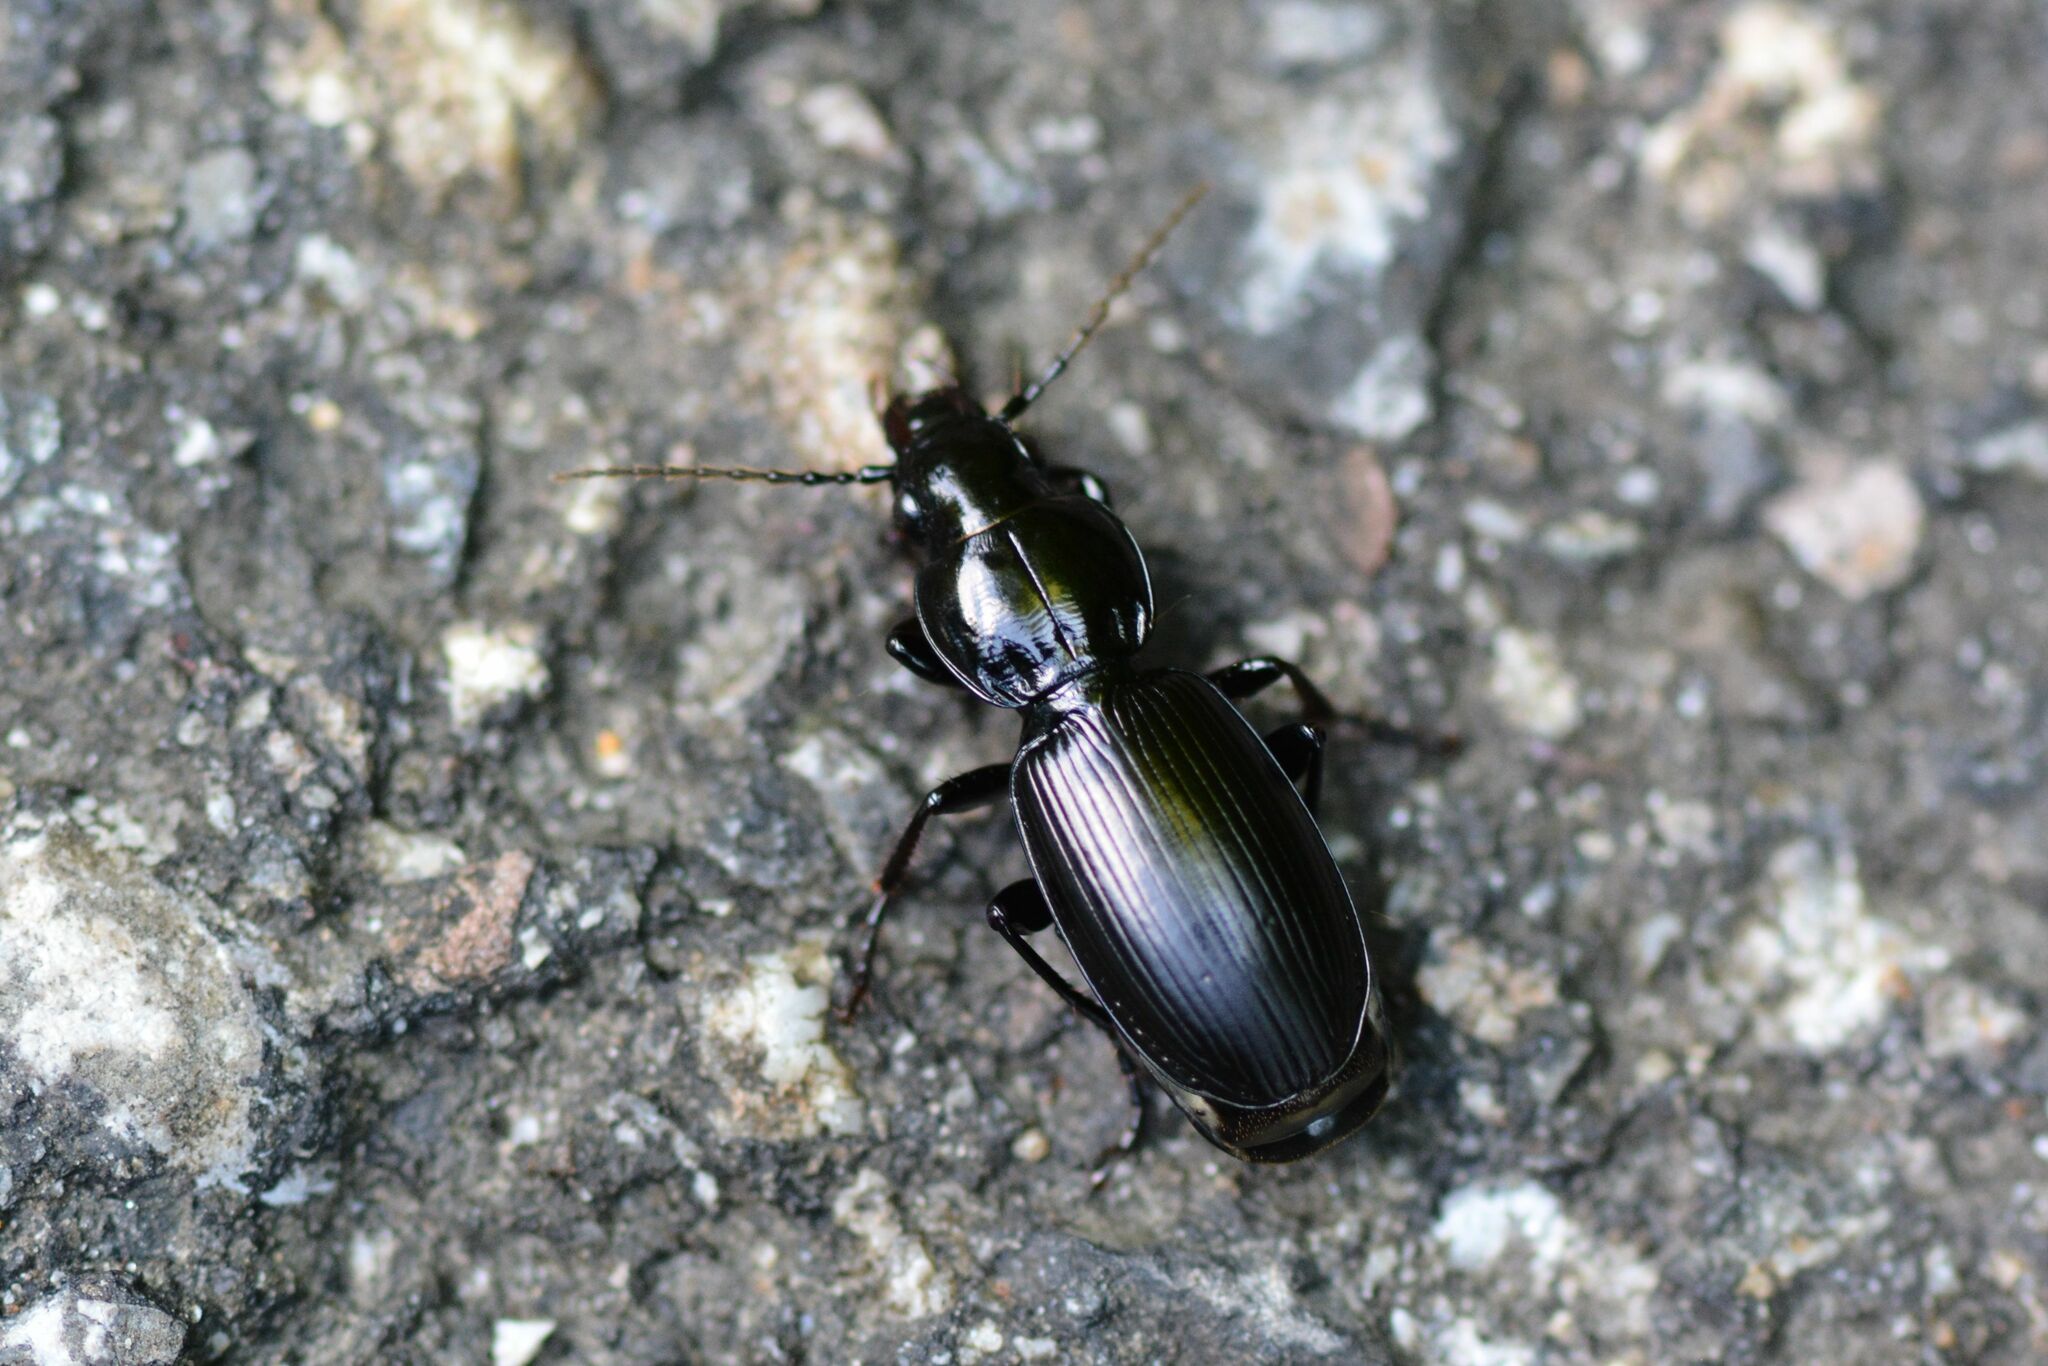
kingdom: Animalia
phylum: Arthropoda
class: Insecta
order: Coleoptera
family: Carabidae
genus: Pterostichus
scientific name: Pterostichus madidus
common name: Black clock
